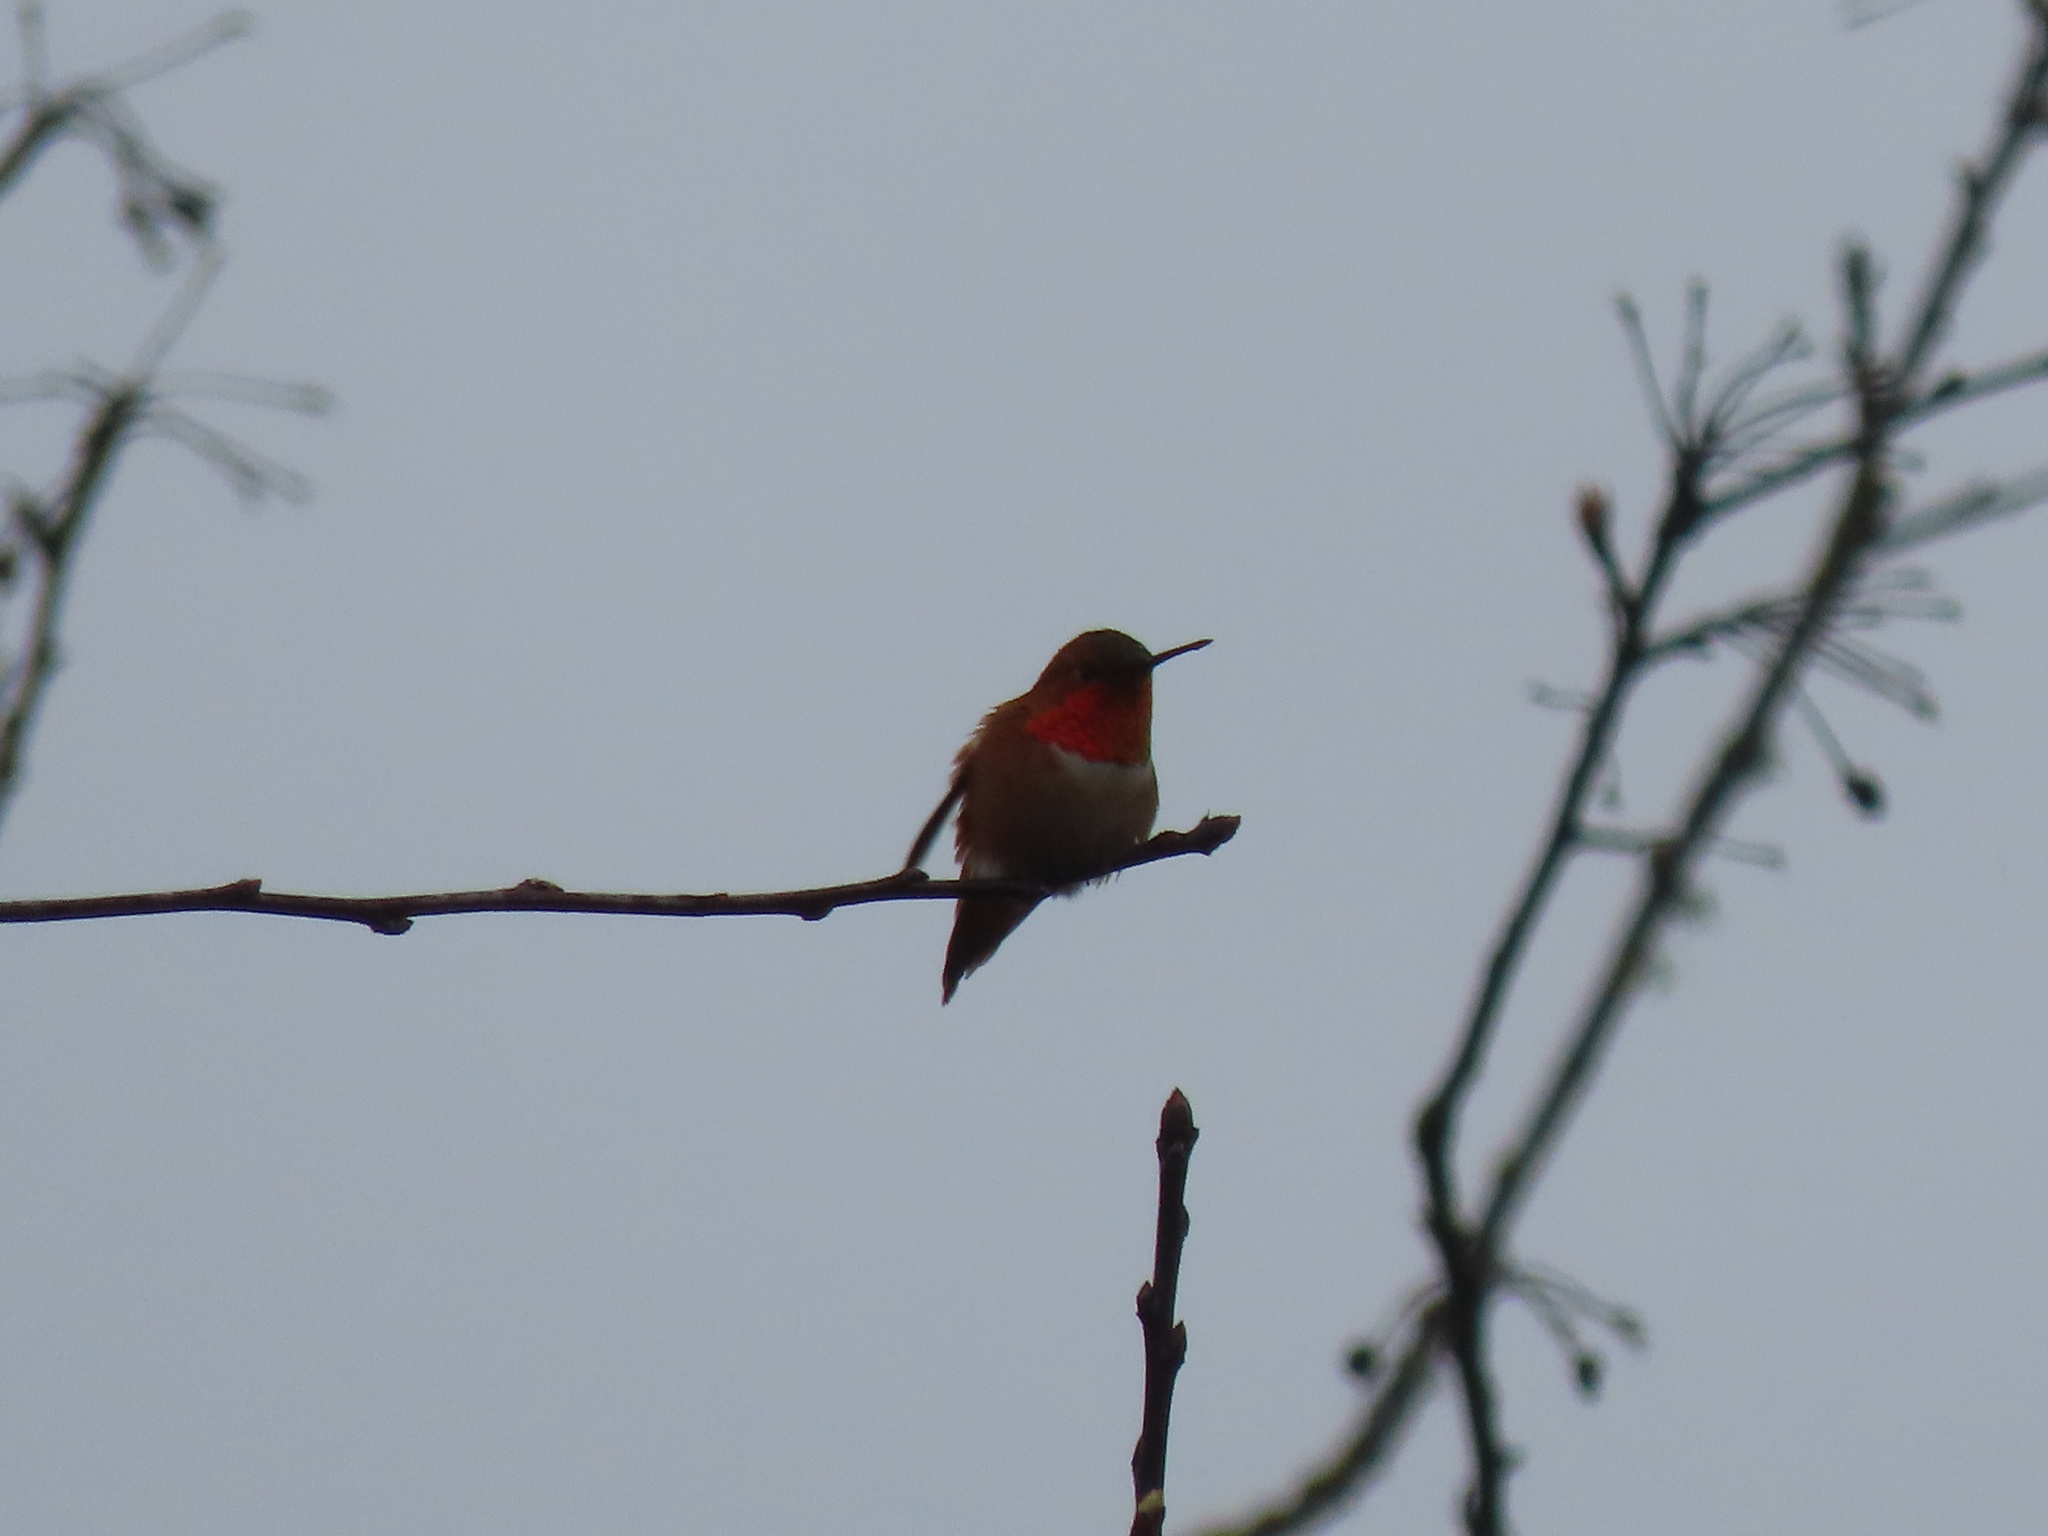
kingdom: Animalia
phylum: Chordata
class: Aves
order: Apodiformes
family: Trochilidae
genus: Selasphorus
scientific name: Selasphorus rufus
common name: Rufous hummingbird
